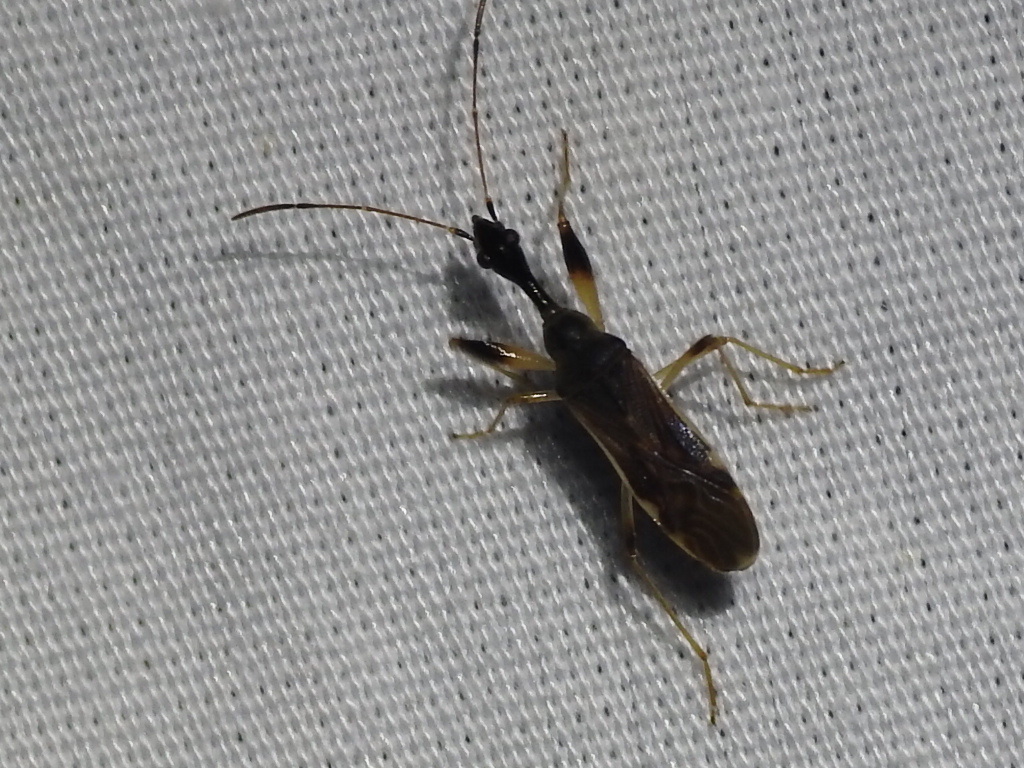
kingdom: Animalia
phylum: Arthropoda
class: Insecta
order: Hemiptera
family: Rhyparochromidae
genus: Myodocha
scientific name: Myodocha serripes
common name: Long-necked seed bug
